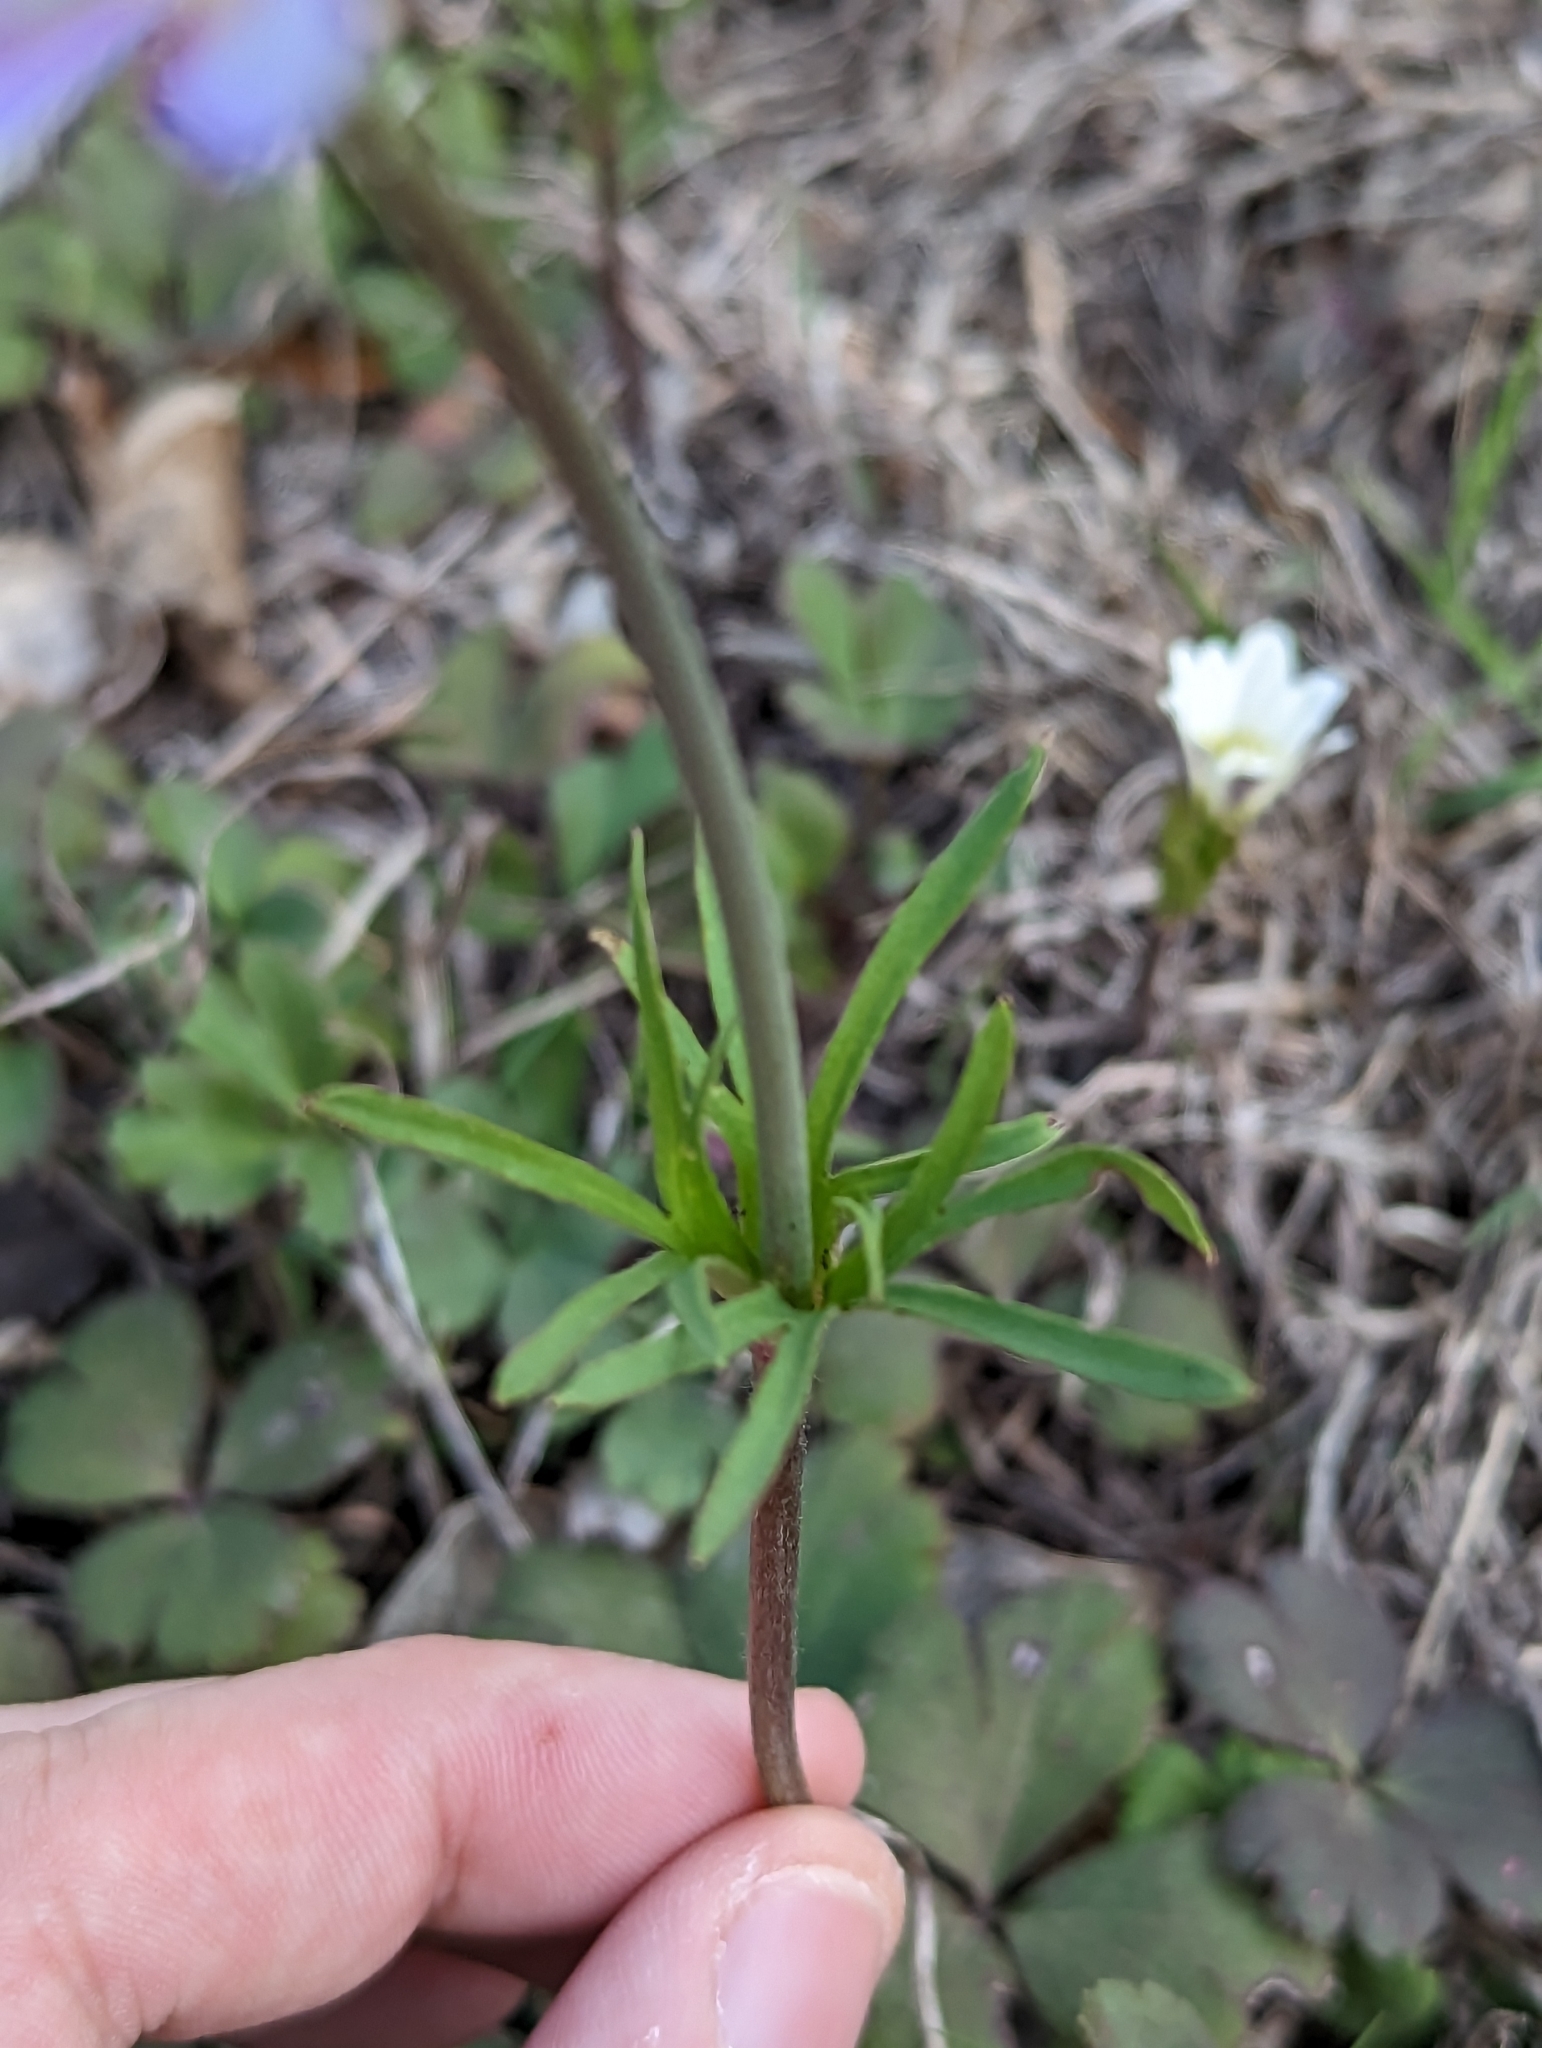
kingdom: Plantae
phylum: Tracheophyta
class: Magnoliopsida
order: Ranunculales
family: Ranunculaceae
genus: Anemone
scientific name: Anemone berlandieri
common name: Ten-petal anemone
